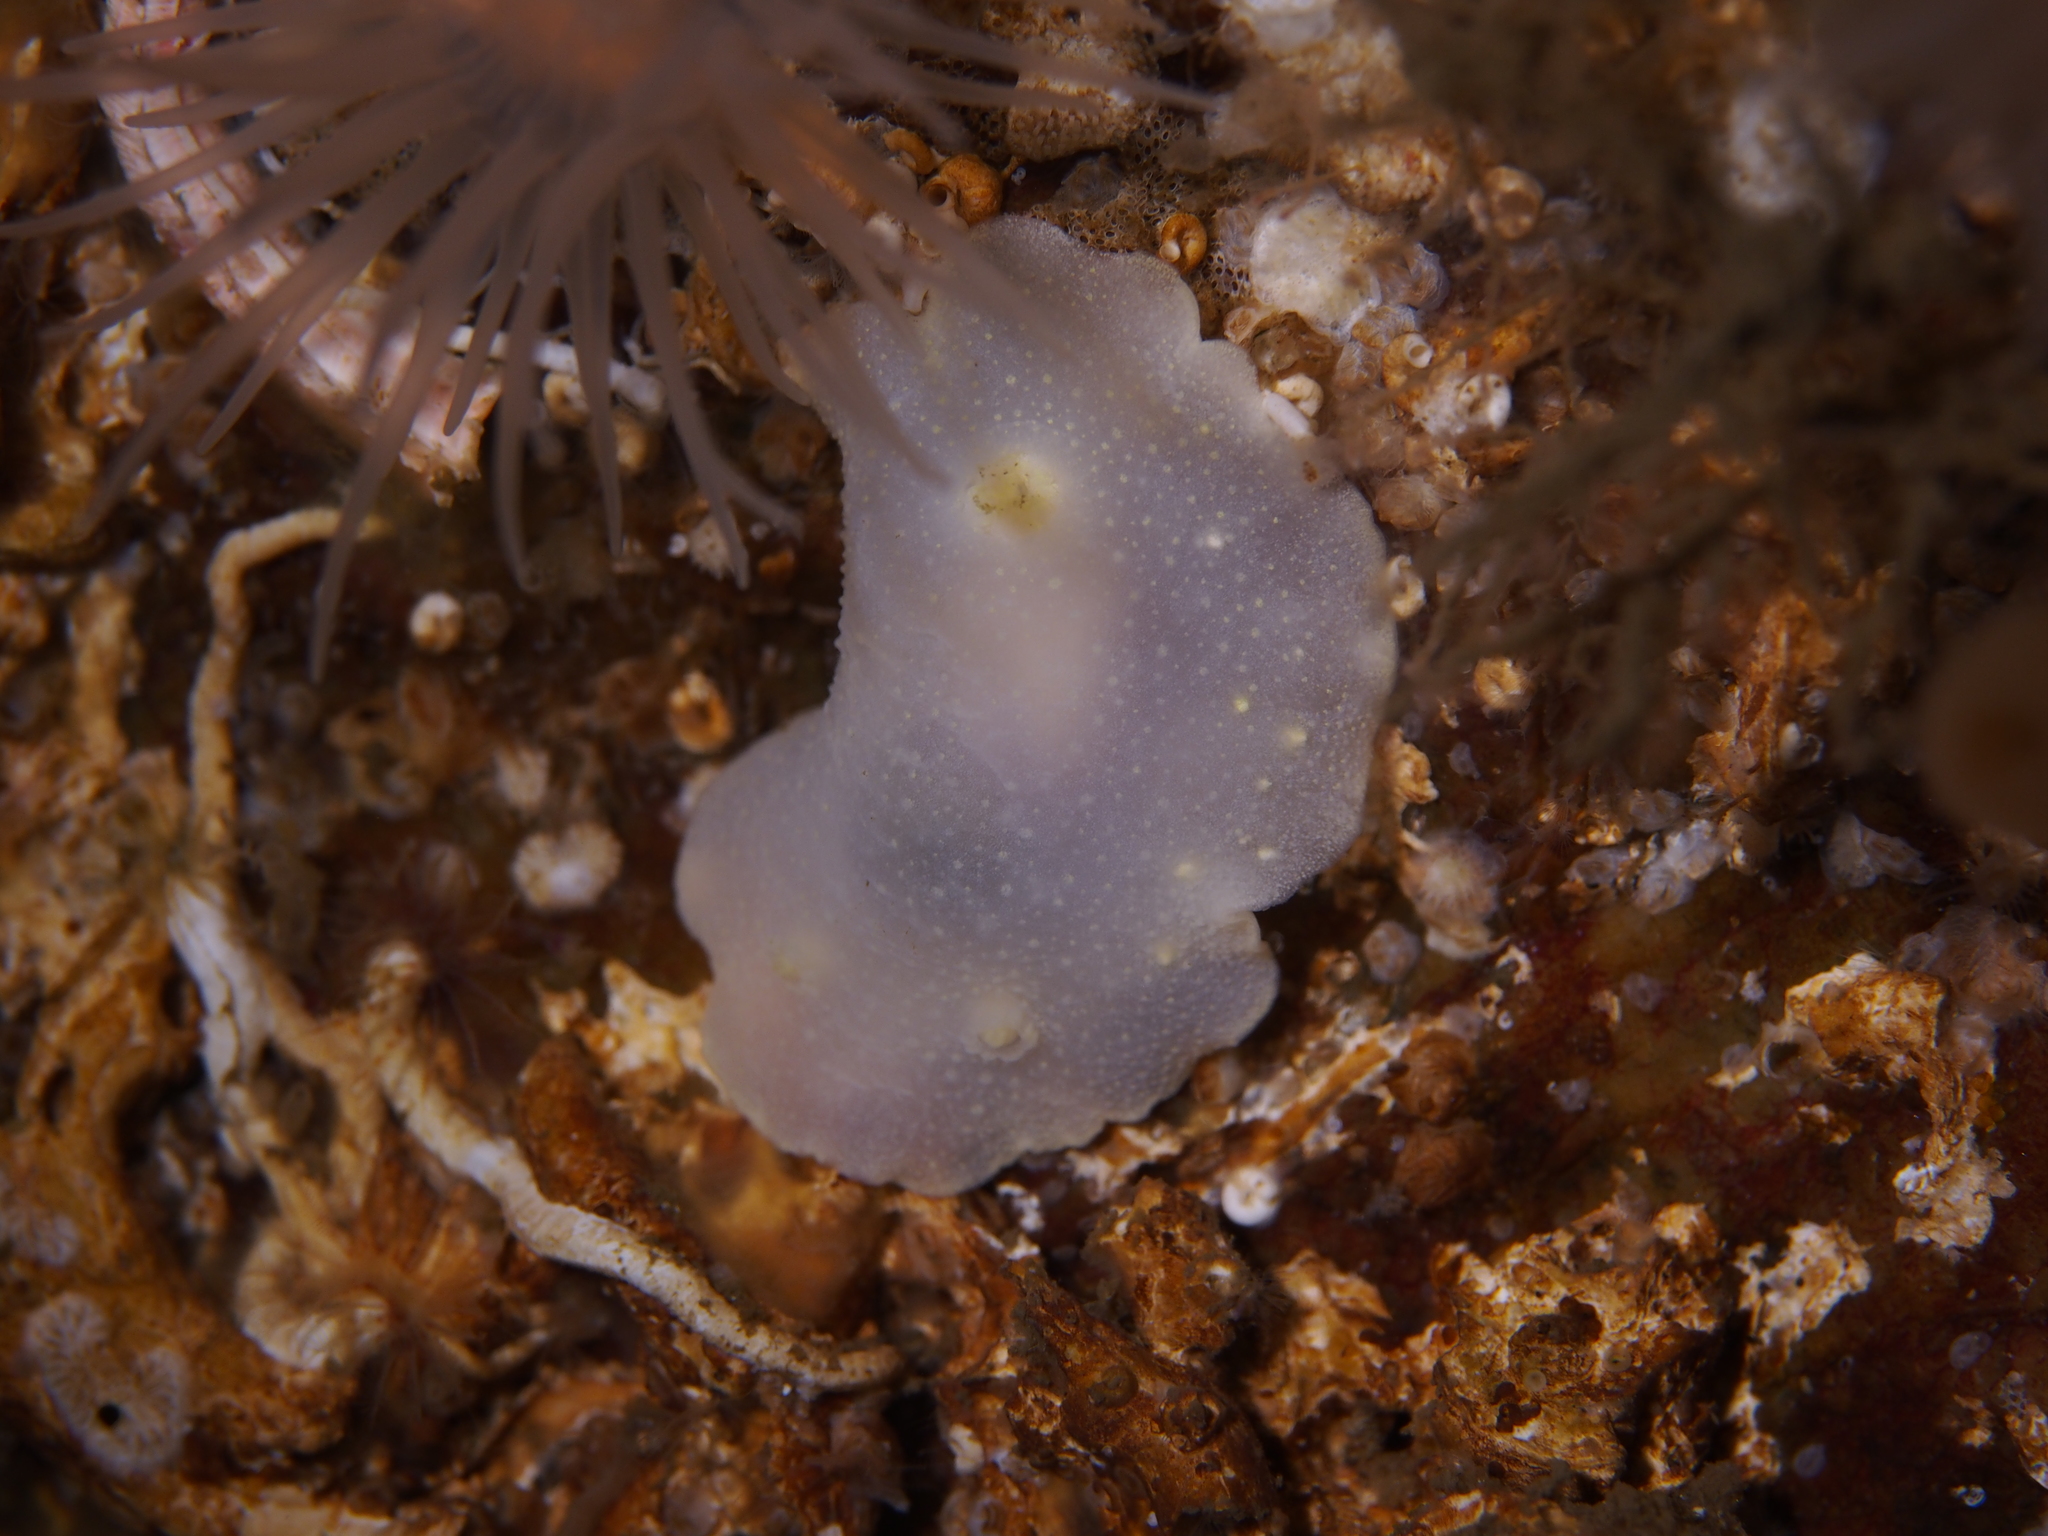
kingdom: Animalia
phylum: Mollusca
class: Gastropoda
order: Nudibranchia
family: Cadlinidae
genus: Cadlina
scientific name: Cadlina laevis
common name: White atlantic cadlina
